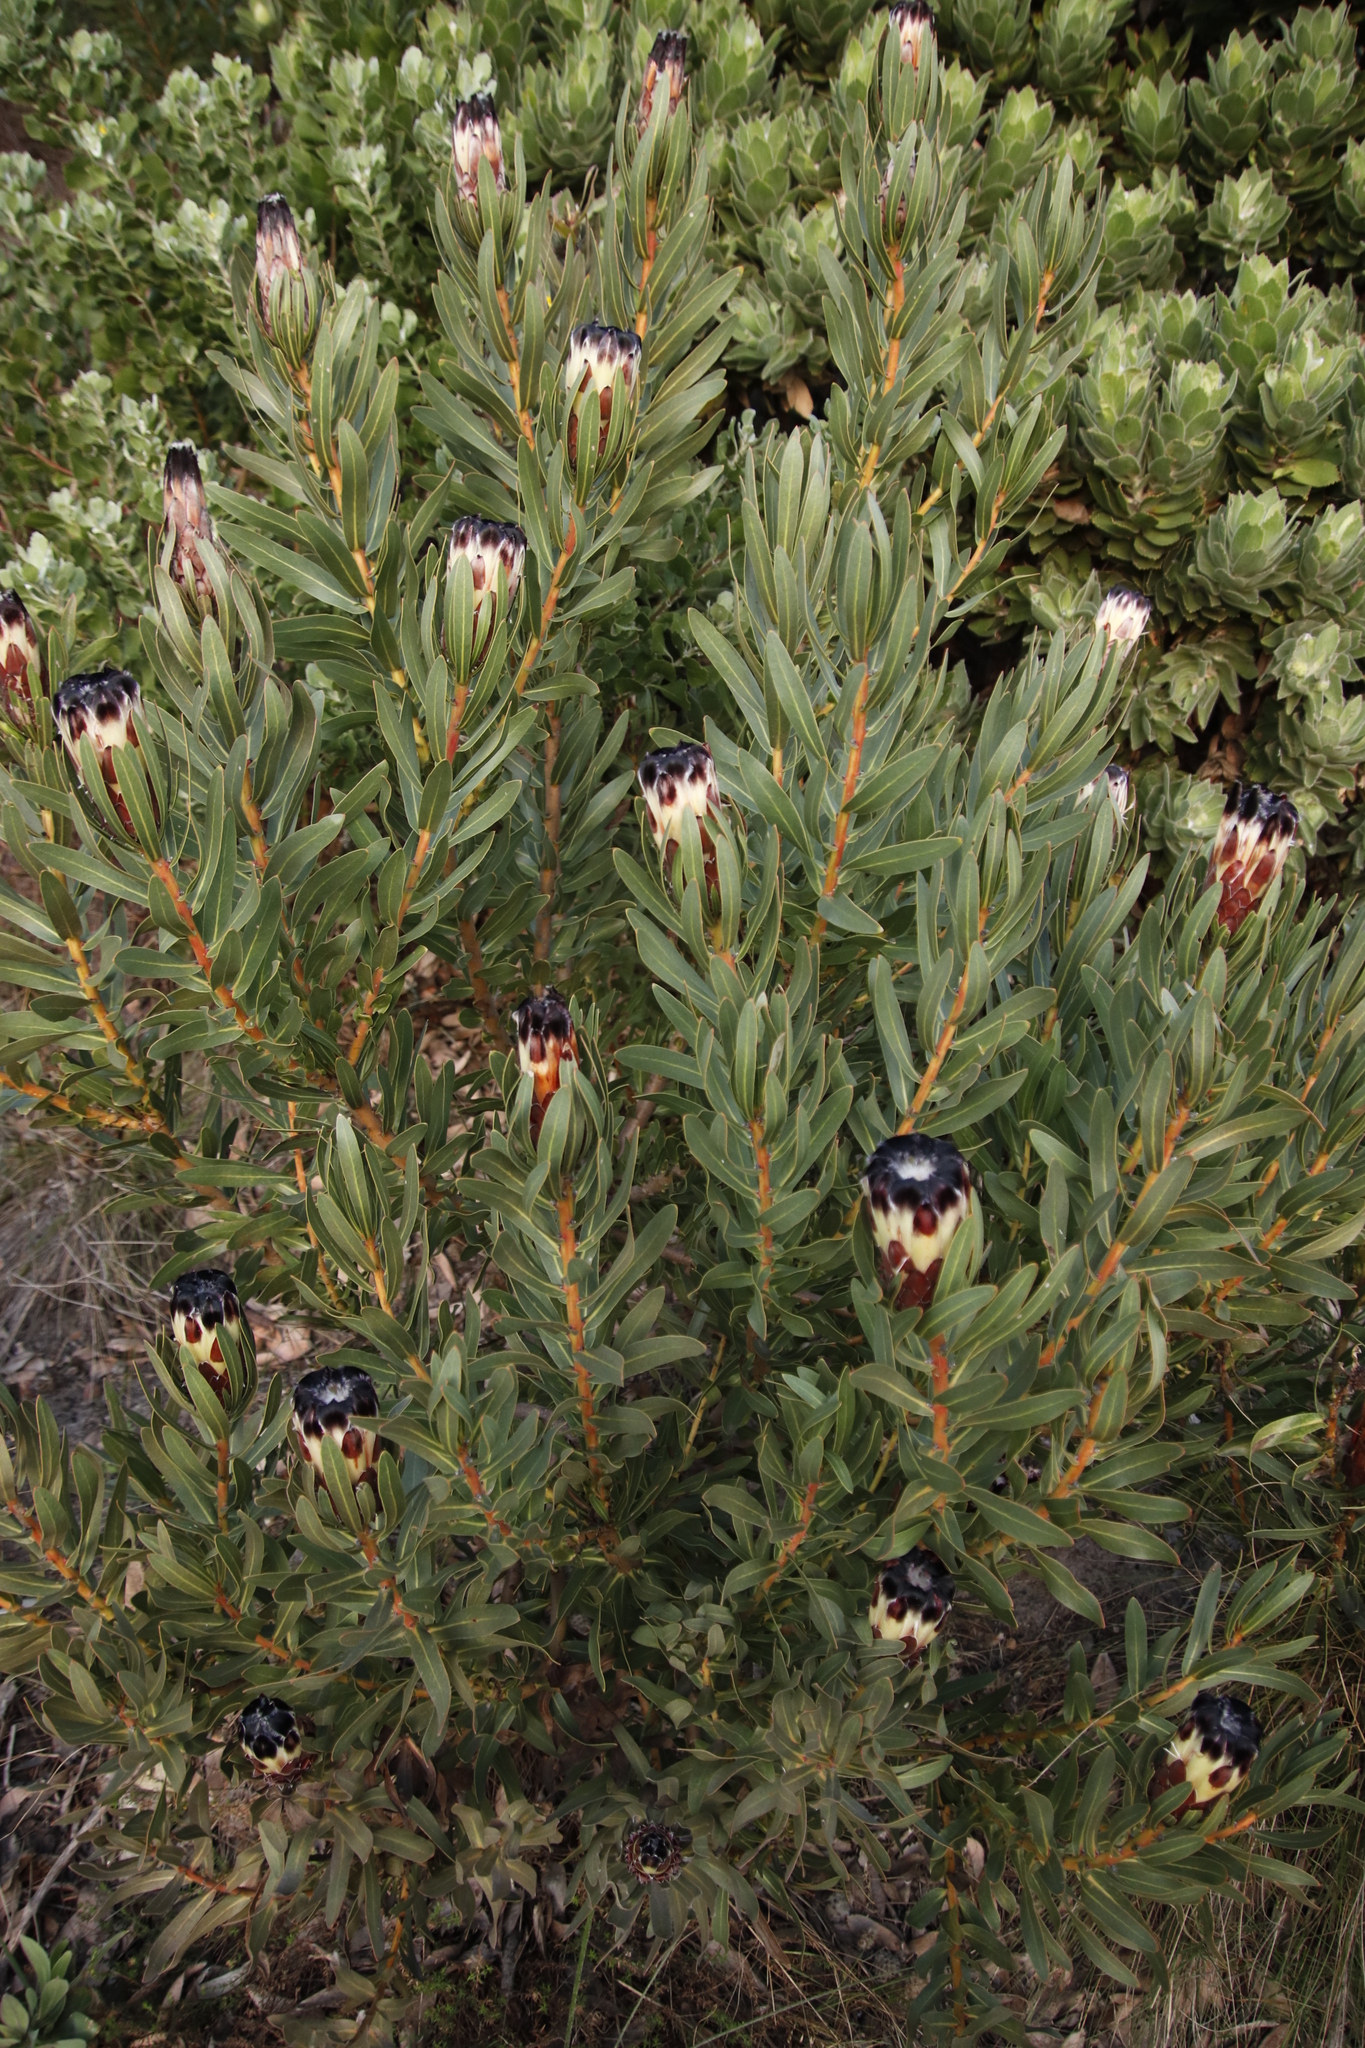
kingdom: Plantae
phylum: Tracheophyta
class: Magnoliopsida
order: Proteales
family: Proteaceae
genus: Protea
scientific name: Protea lepidocarpodendron
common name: Black-bearded protea
